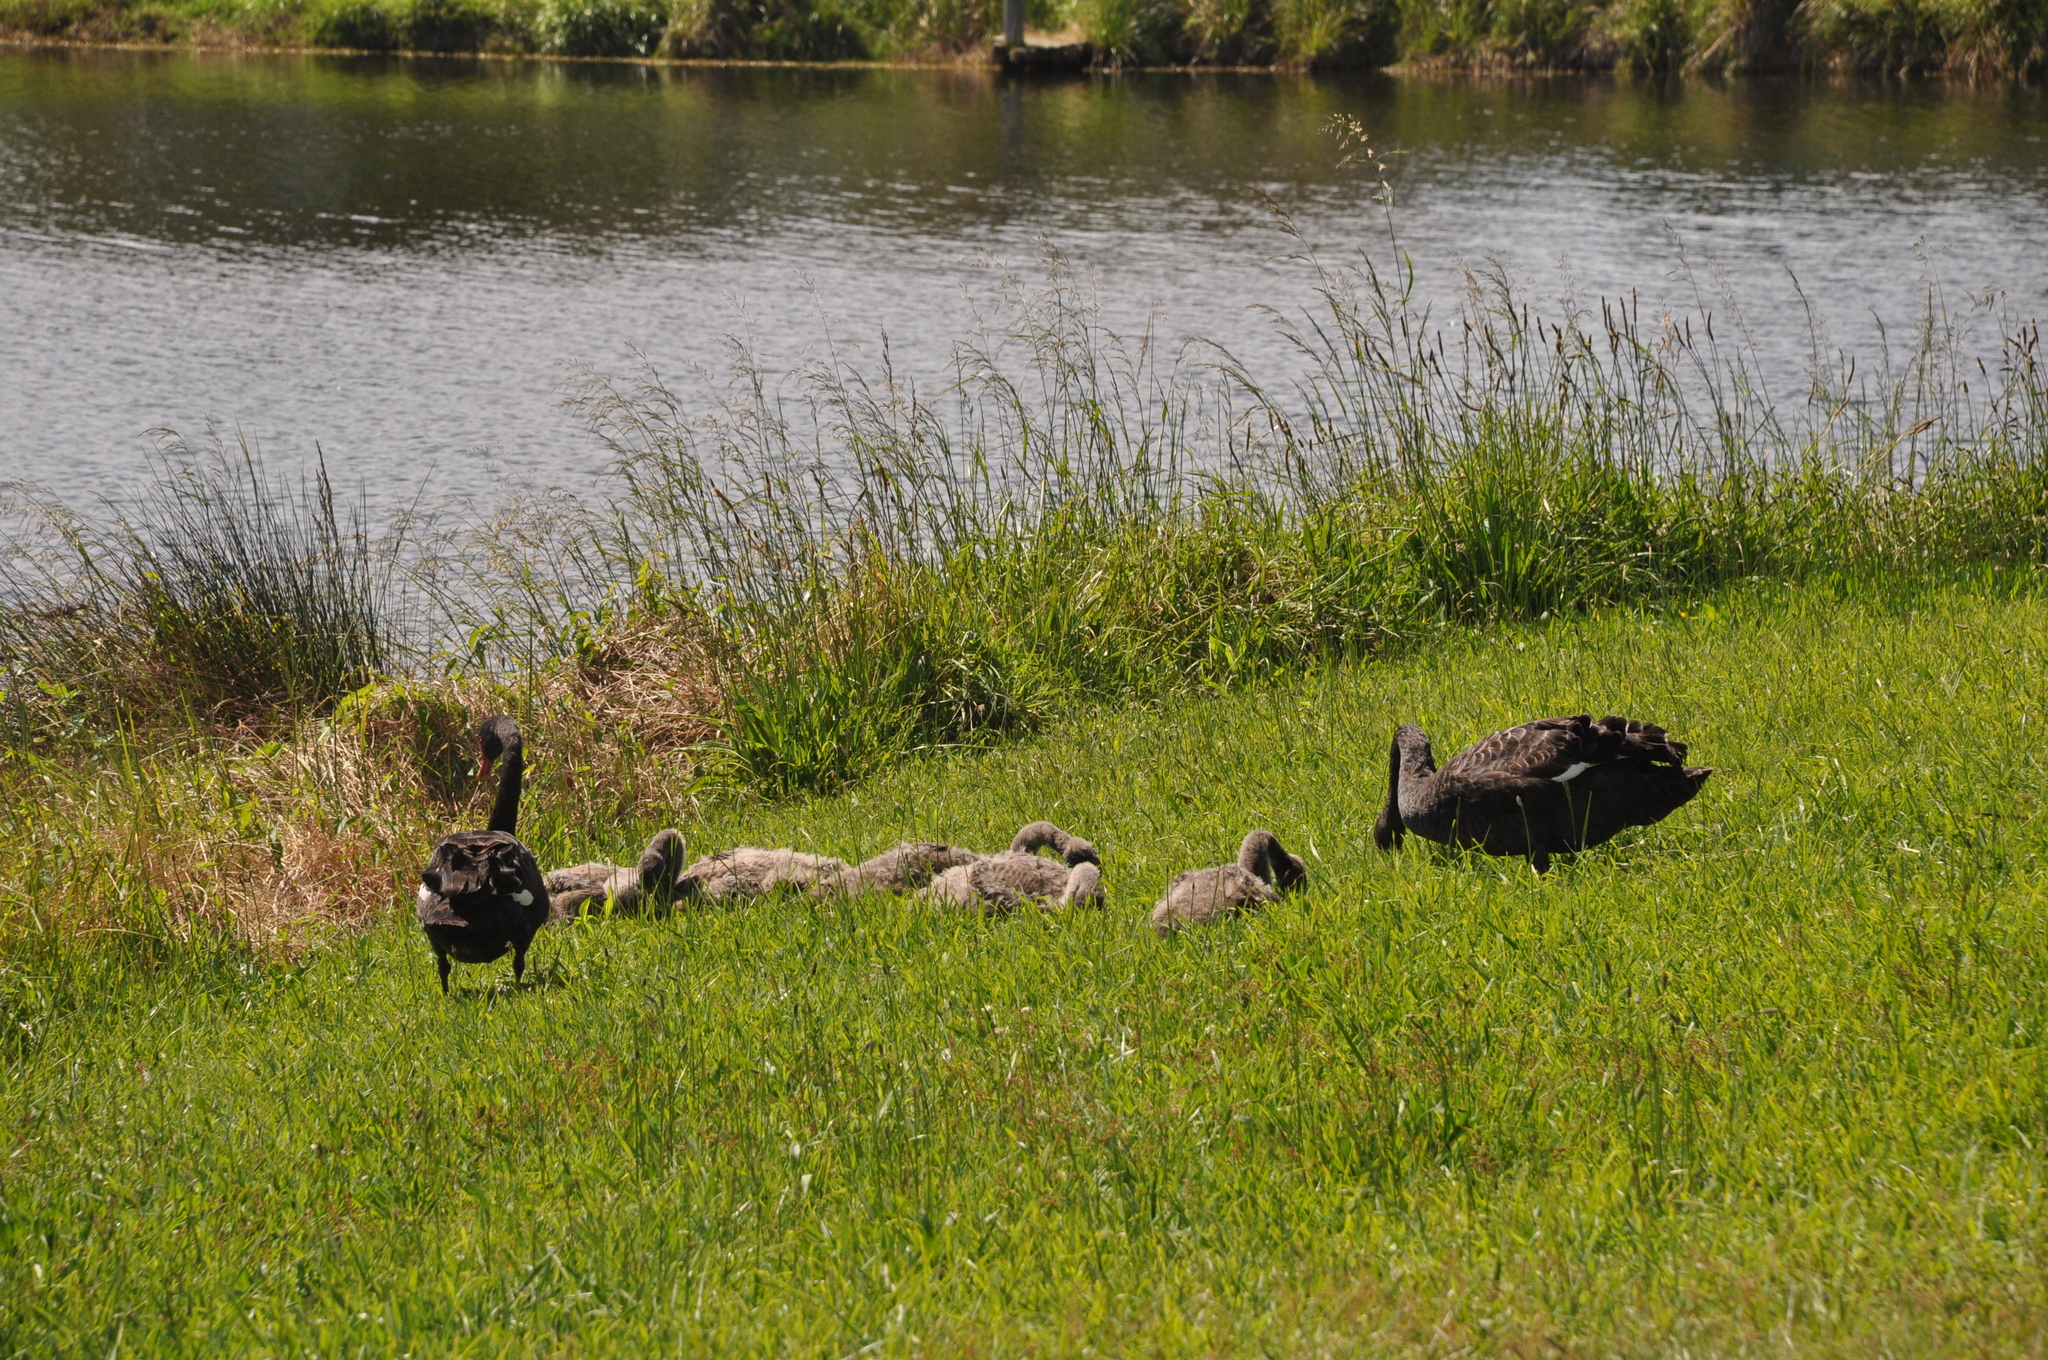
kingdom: Animalia
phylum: Chordata
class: Aves
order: Anseriformes
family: Anatidae
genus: Cygnus
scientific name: Cygnus atratus
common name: Black swan
